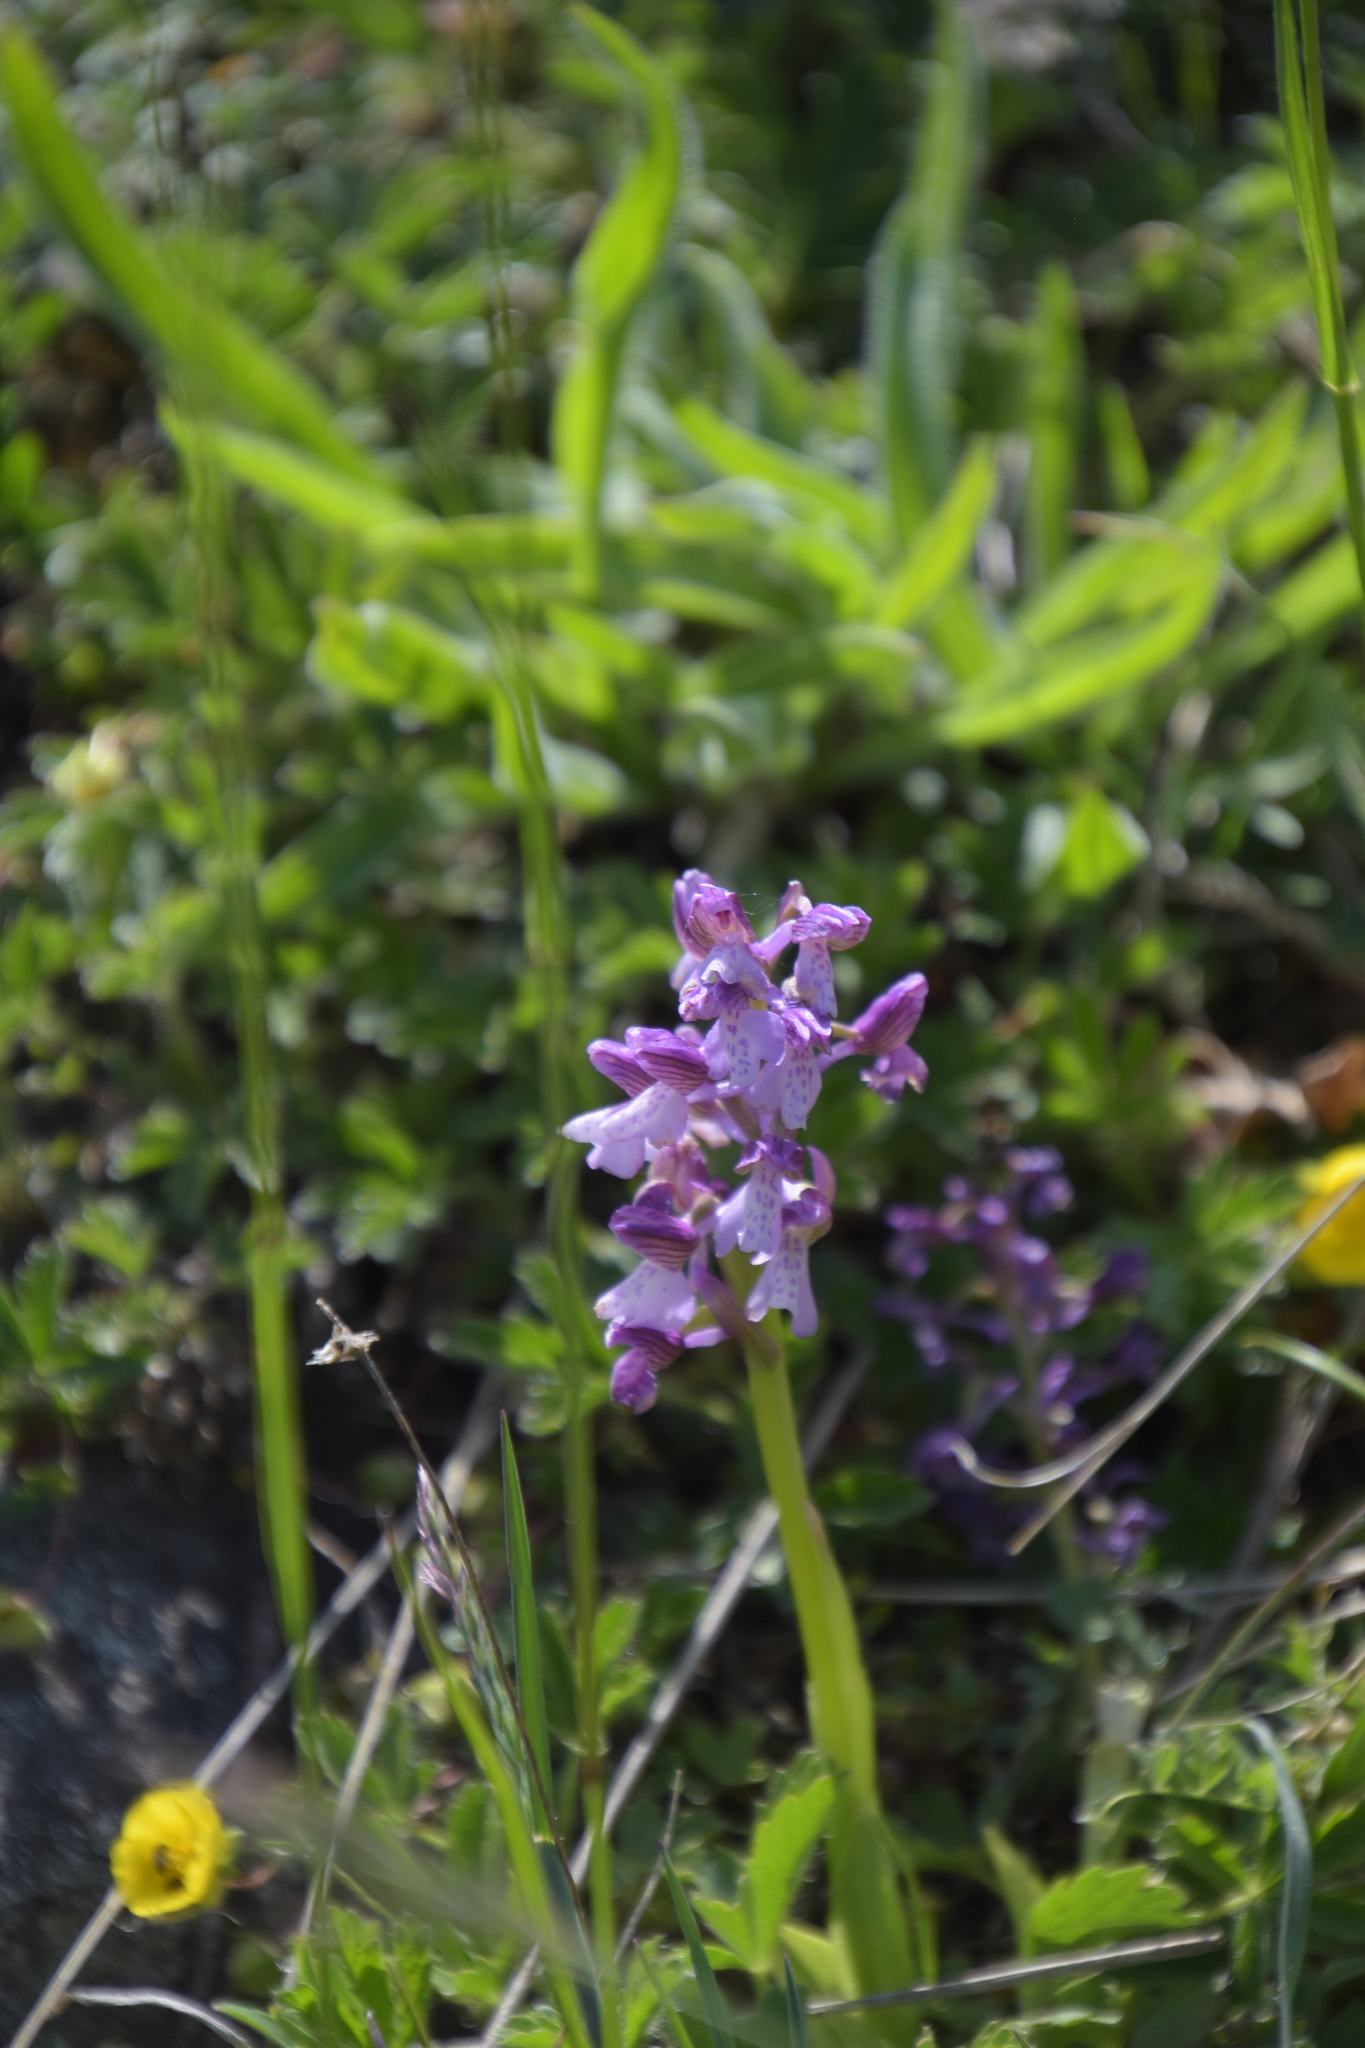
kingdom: Plantae
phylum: Tracheophyta
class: Liliopsida
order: Asparagales
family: Orchidaceae
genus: Anacamptis
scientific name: Anacamptis morio
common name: Green-winged orchid
